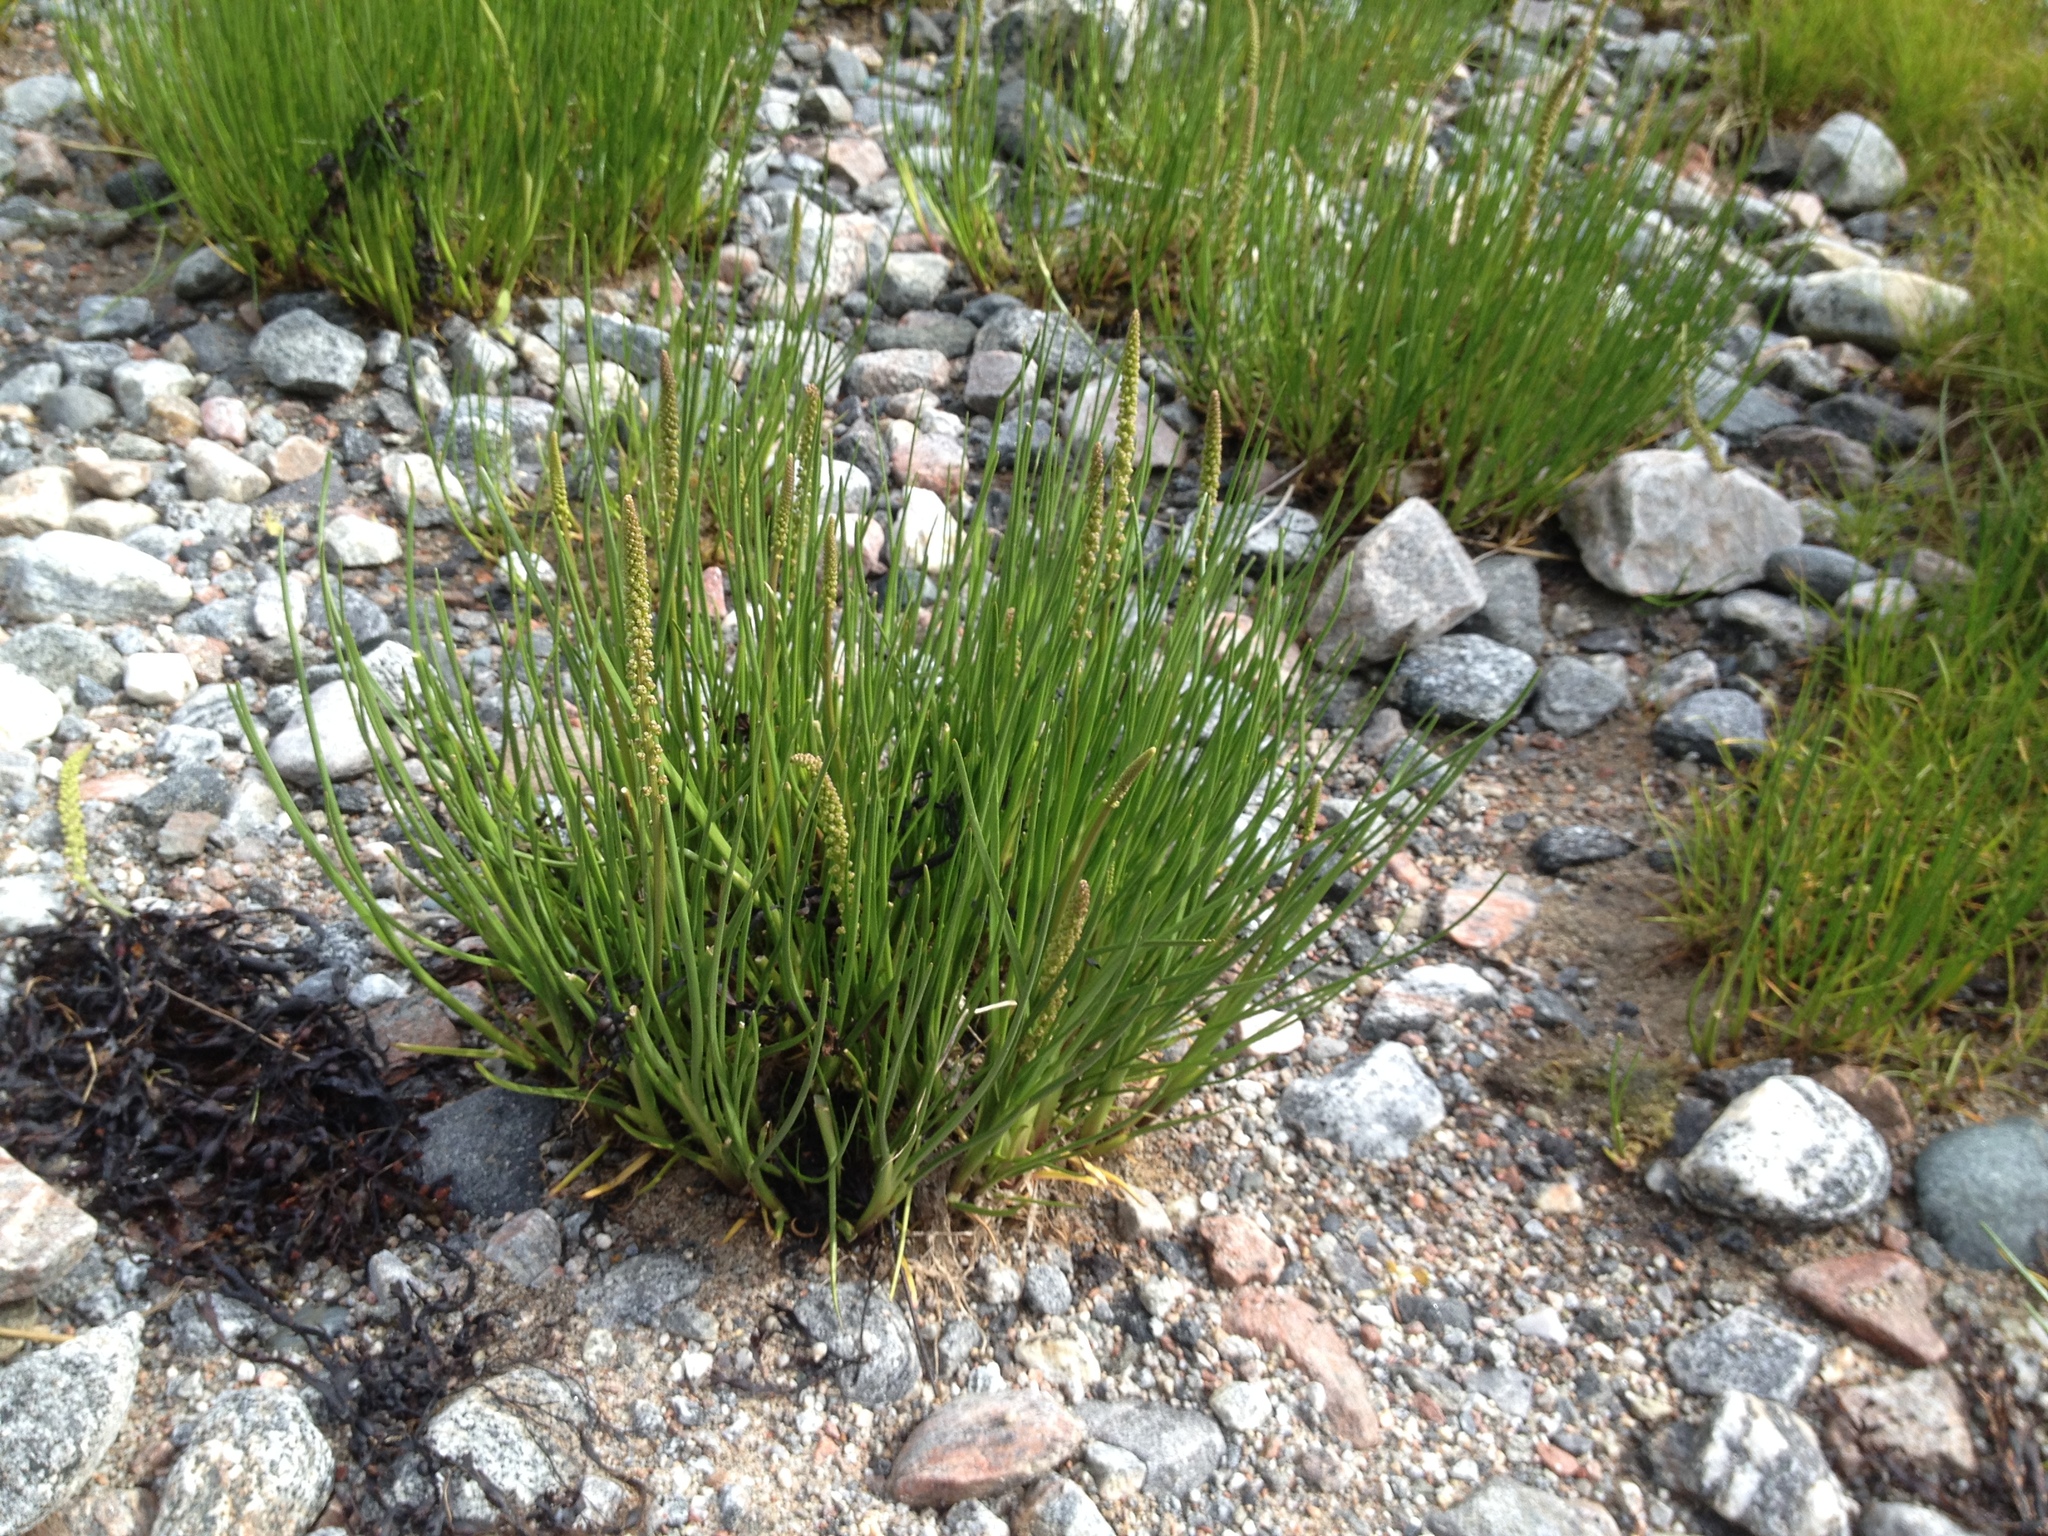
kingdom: Plantae
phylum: Tracheophyta
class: Liliopsida
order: Alismatales
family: Juncaginaceae
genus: Triglochin
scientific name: Triglochin maritima
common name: Sea arrowgrass
